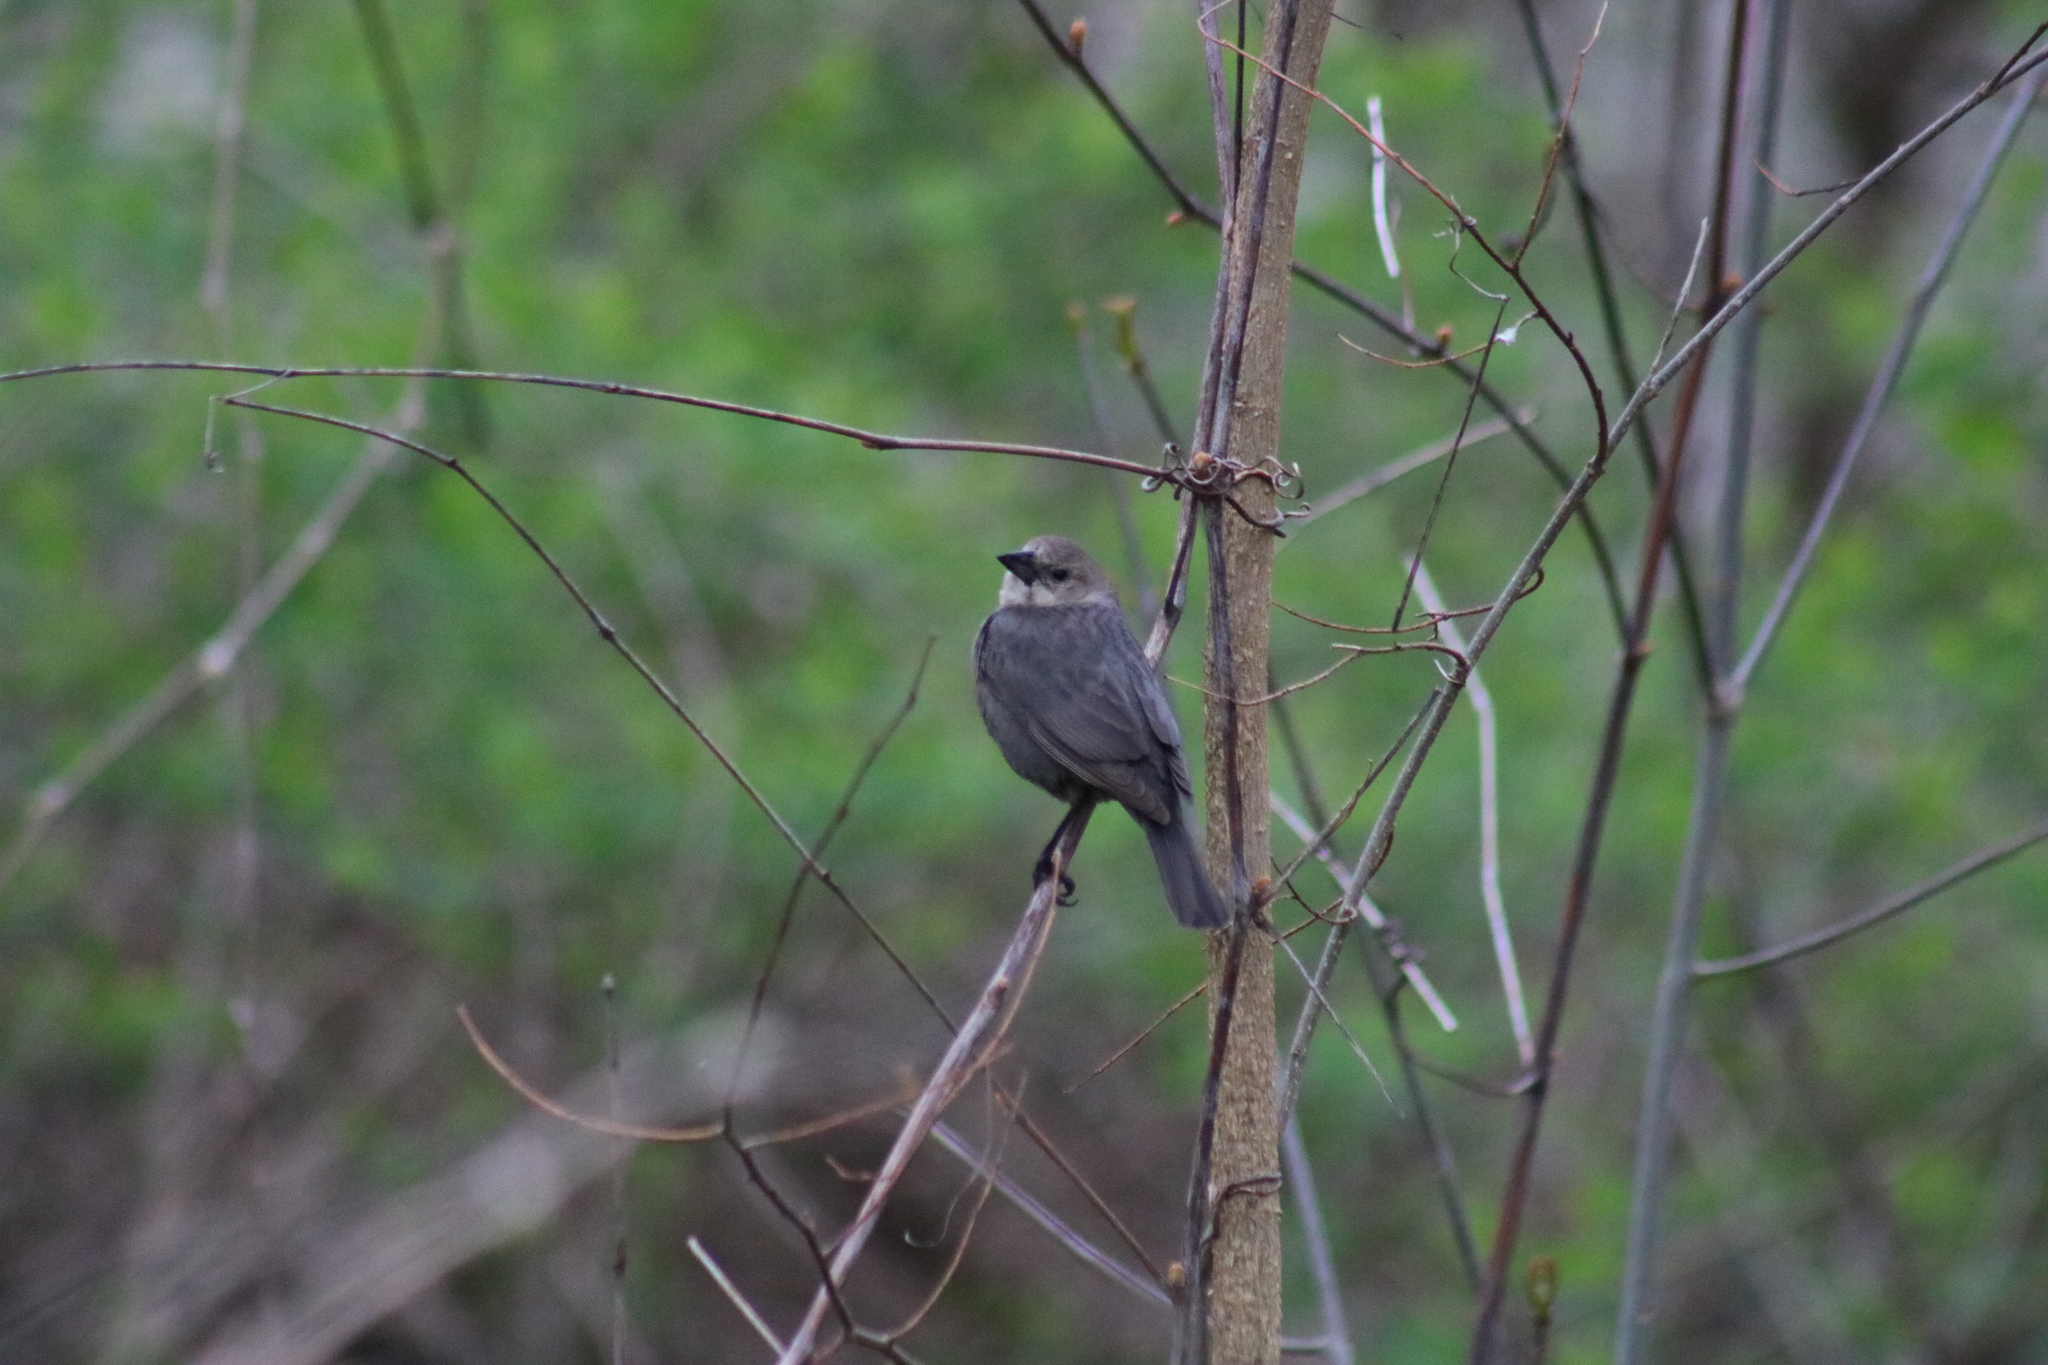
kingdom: Animalia
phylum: Chordata
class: Aves
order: Passeriformes
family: Icteridae
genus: Molothrus
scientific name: Molothrus ater
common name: Brown-headed cowbird
